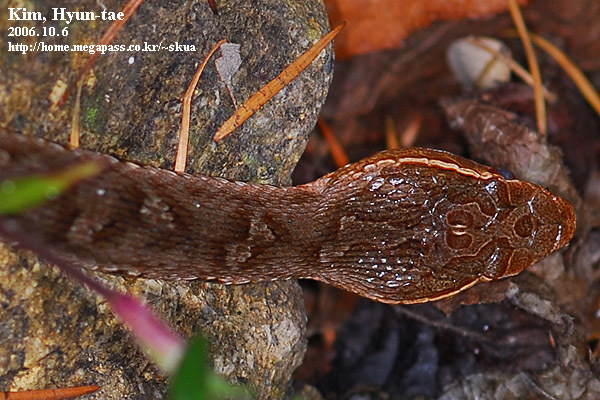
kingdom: Animalia
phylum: Chordata
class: Squamata
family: Viperidae
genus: Gloydius
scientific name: Gloydius ussuriensis
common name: Ussuri mamushi
